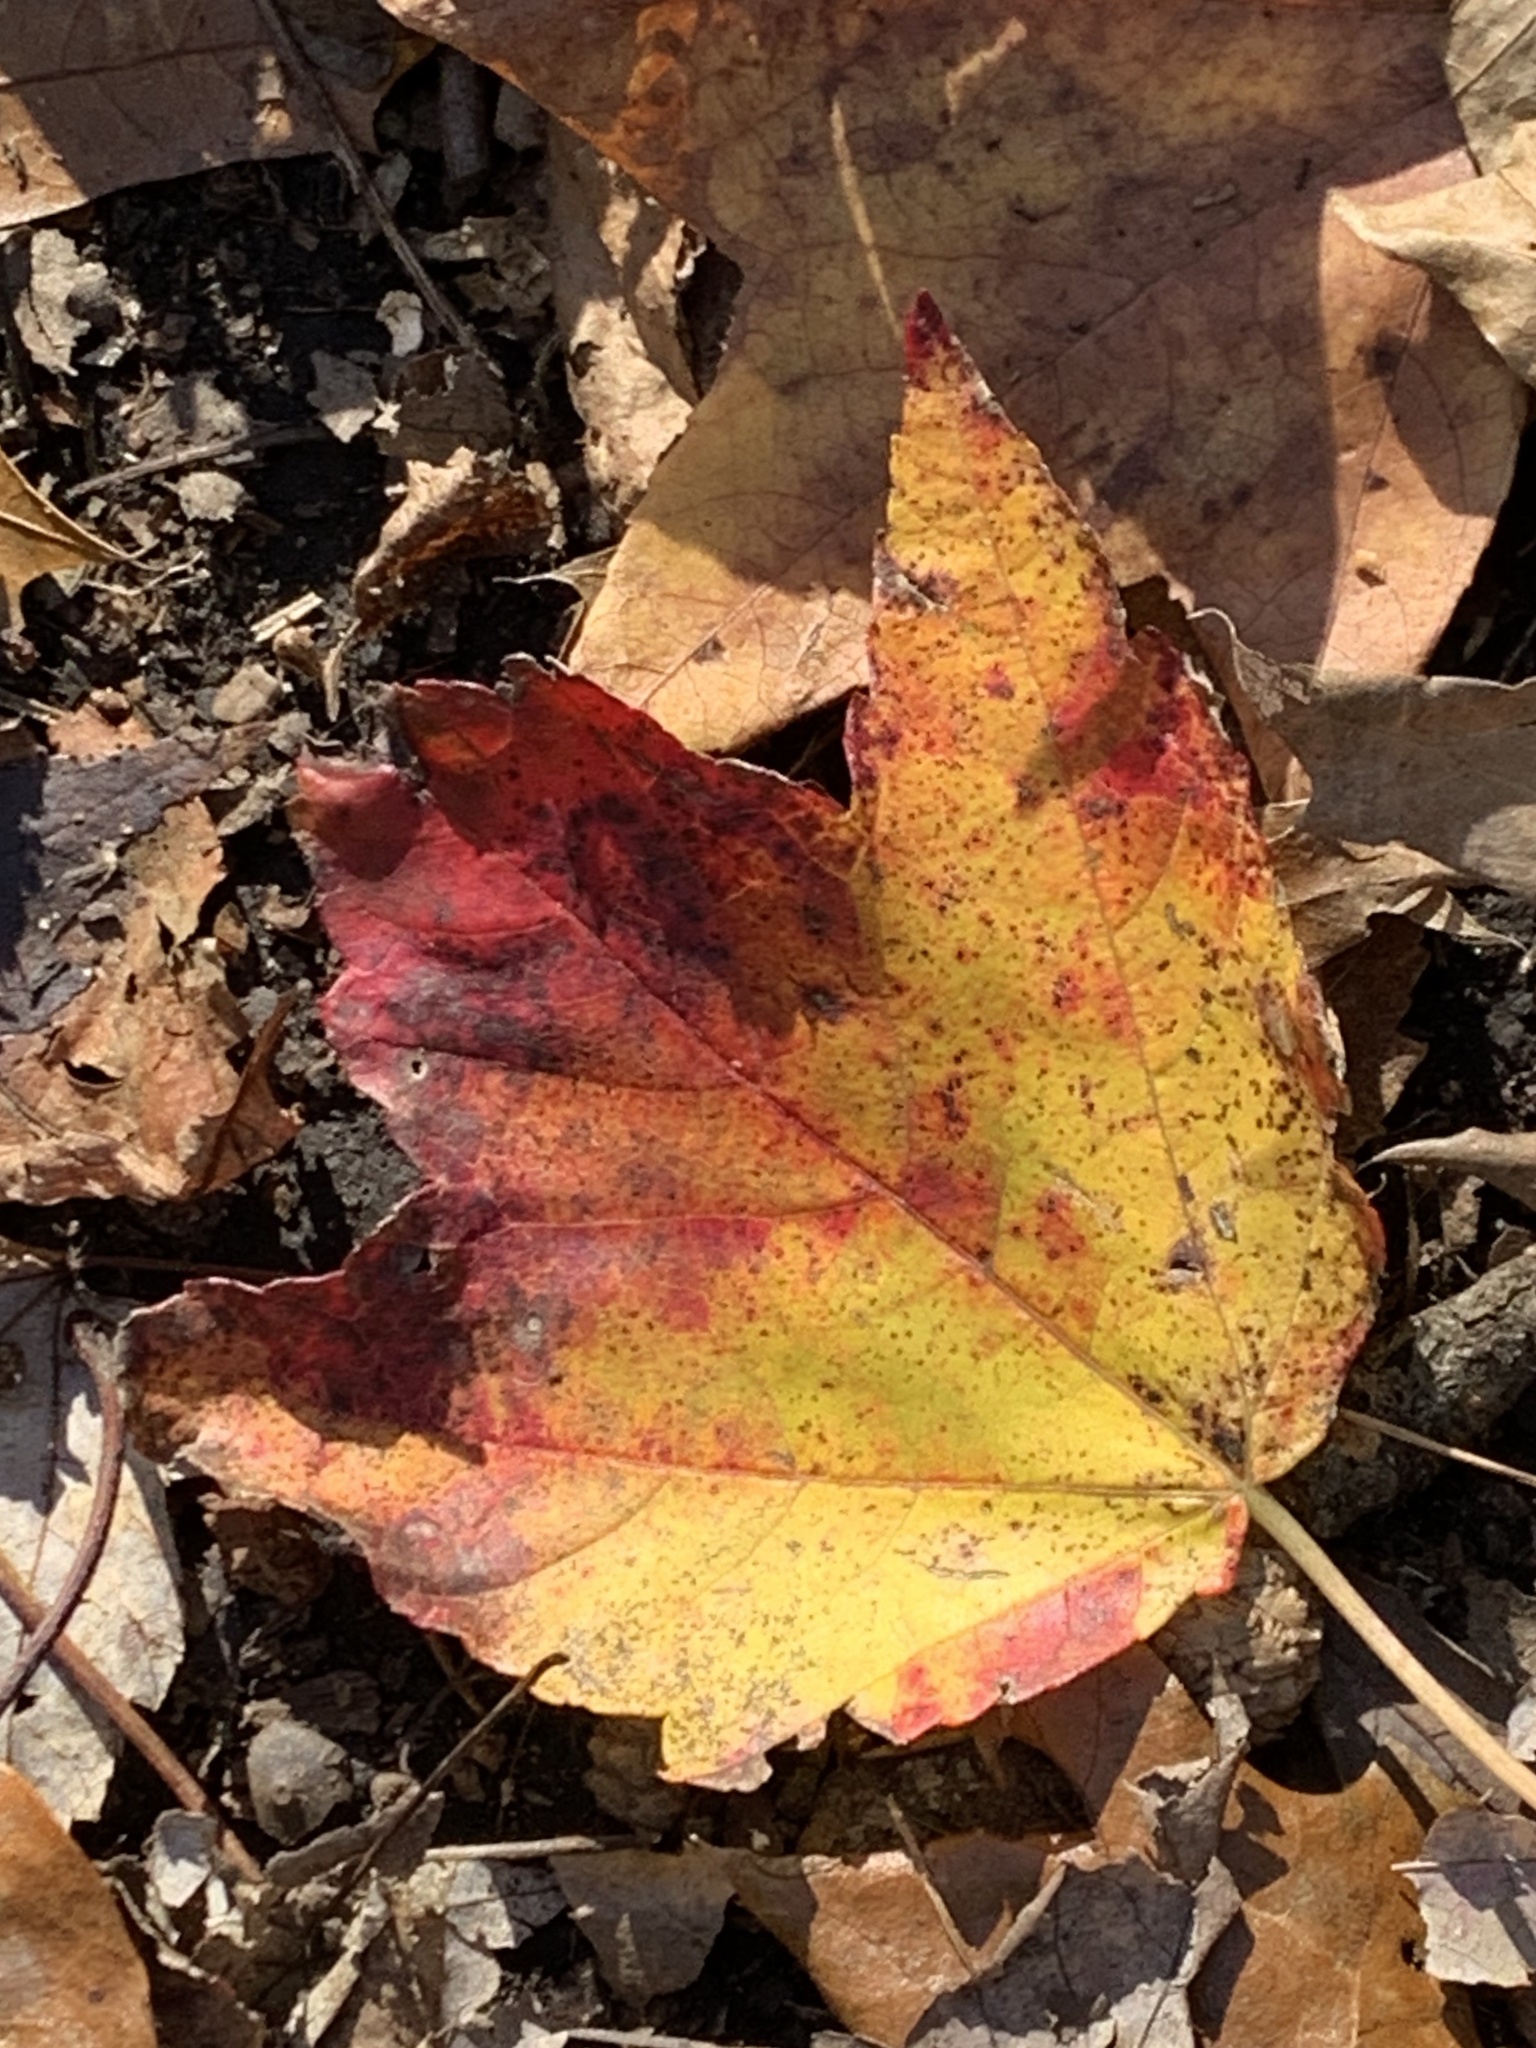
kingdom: Plantae
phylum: Tracheophyta
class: Magnoliopsida
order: Sapindales
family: Sapindaceae
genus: Acer
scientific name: Acer rubrum
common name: Red maple
